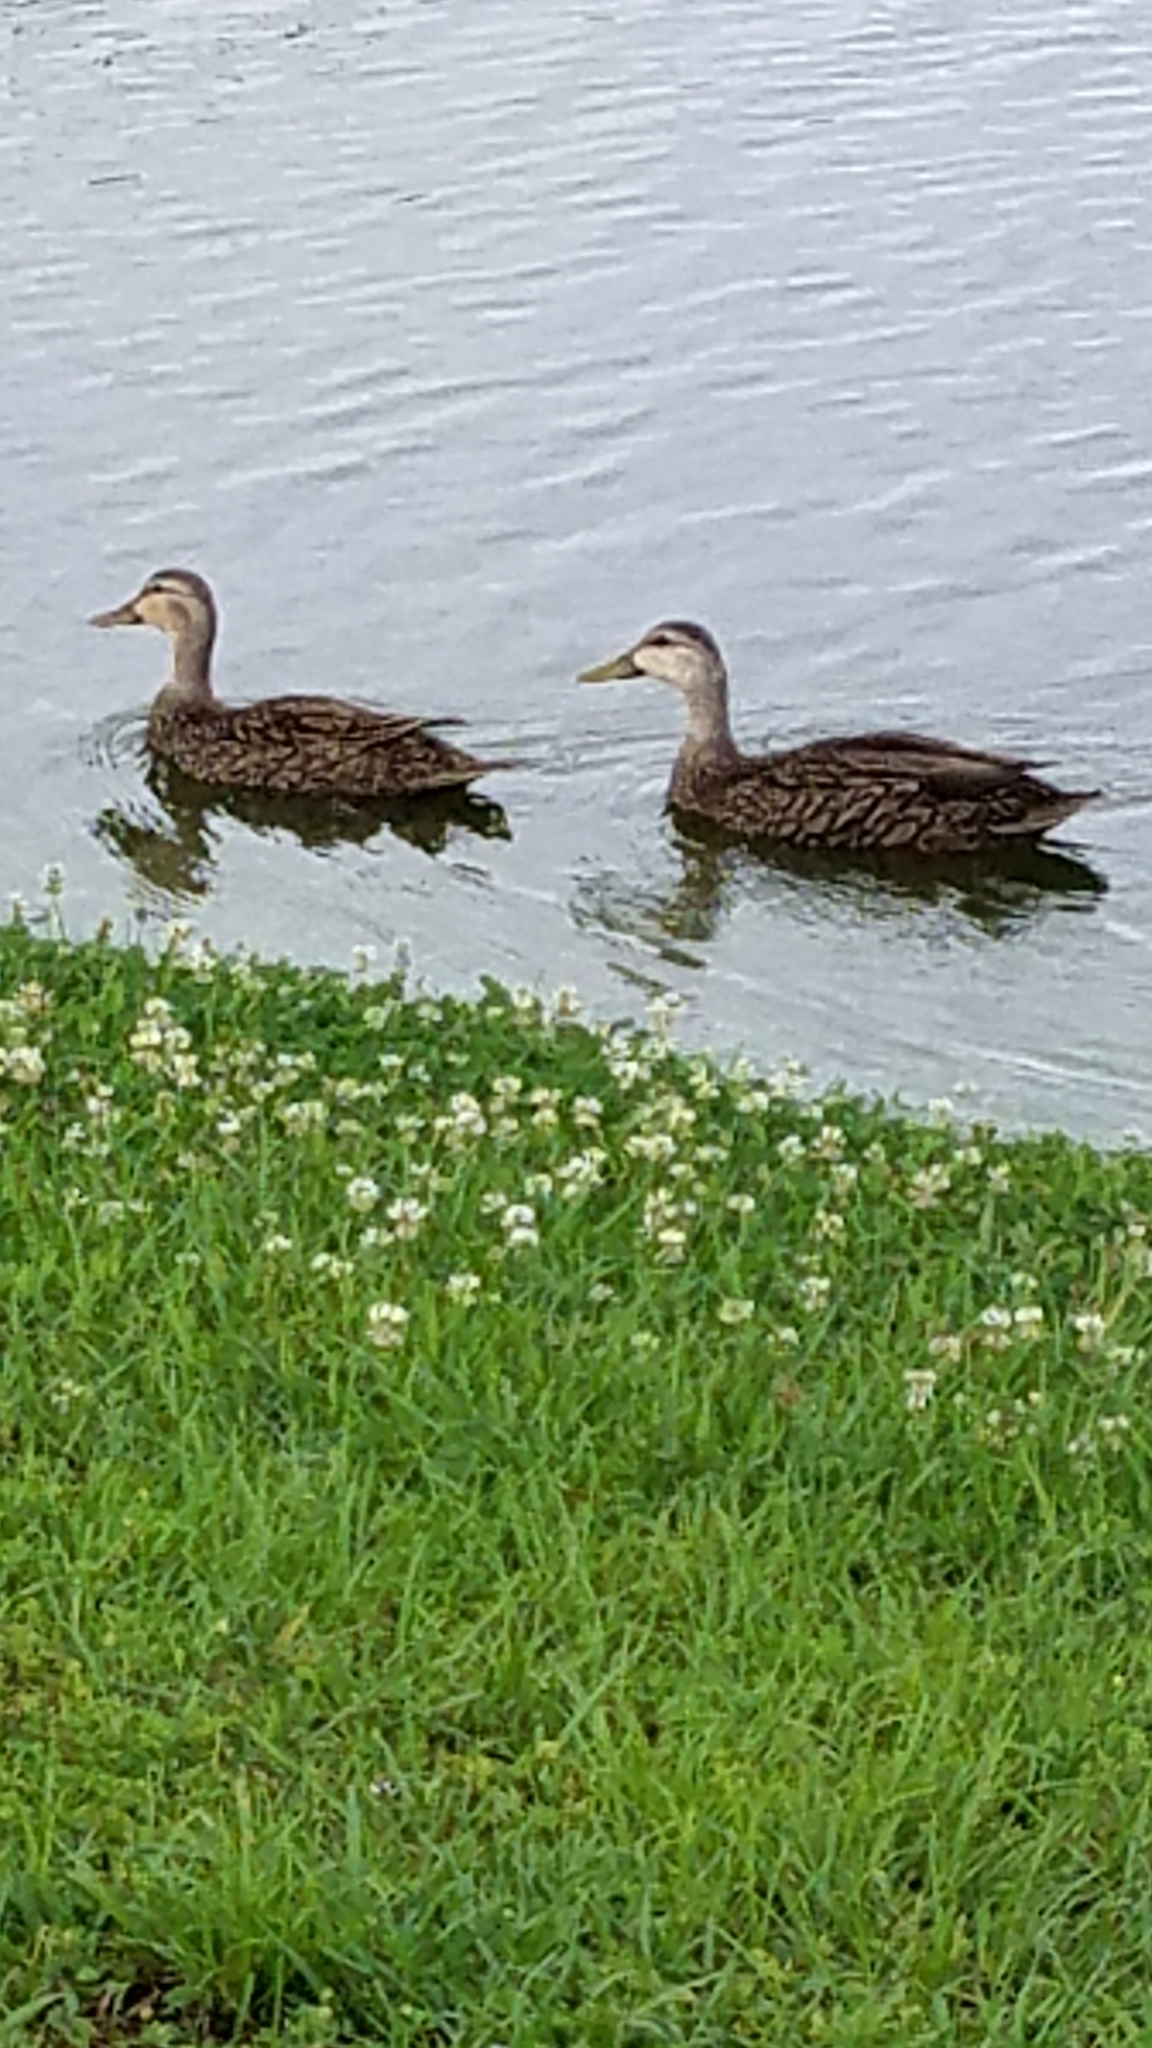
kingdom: Animalia
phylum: Chordata
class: Aves
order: Anseriformes
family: Anatidae
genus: Anas
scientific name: Anas
